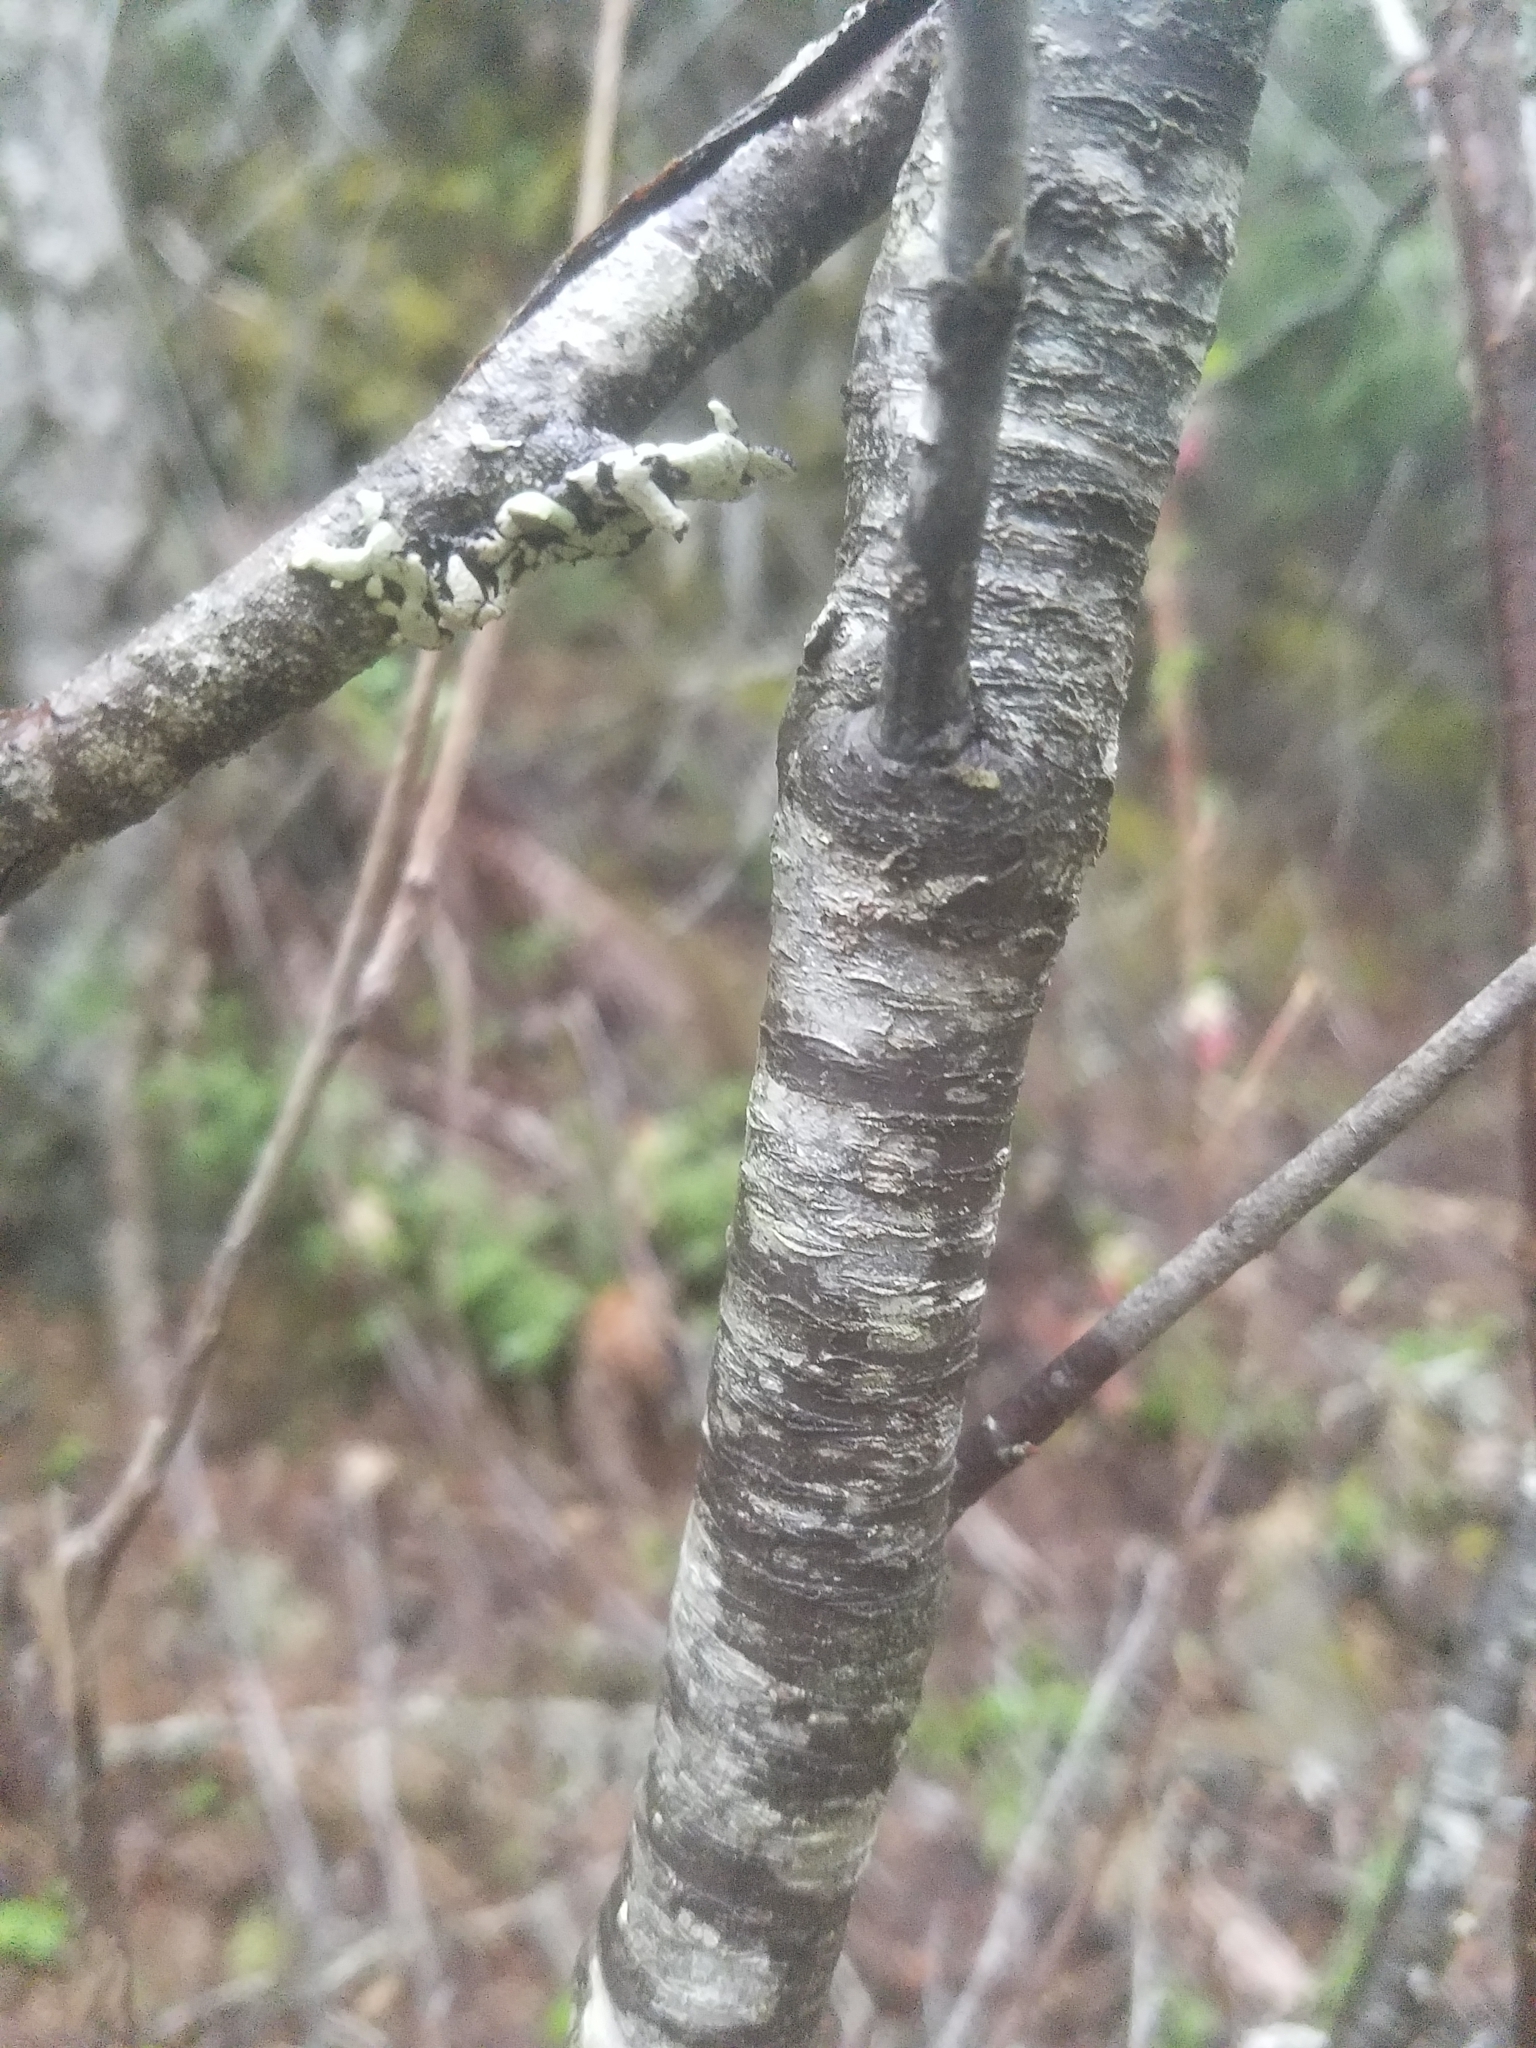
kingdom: Plantae
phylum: Tracheophyta
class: Magnoliopsida
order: Saxifragales
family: Grossulariaceae
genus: Ribes
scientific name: Ribes sanguineum
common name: Flowering currant
